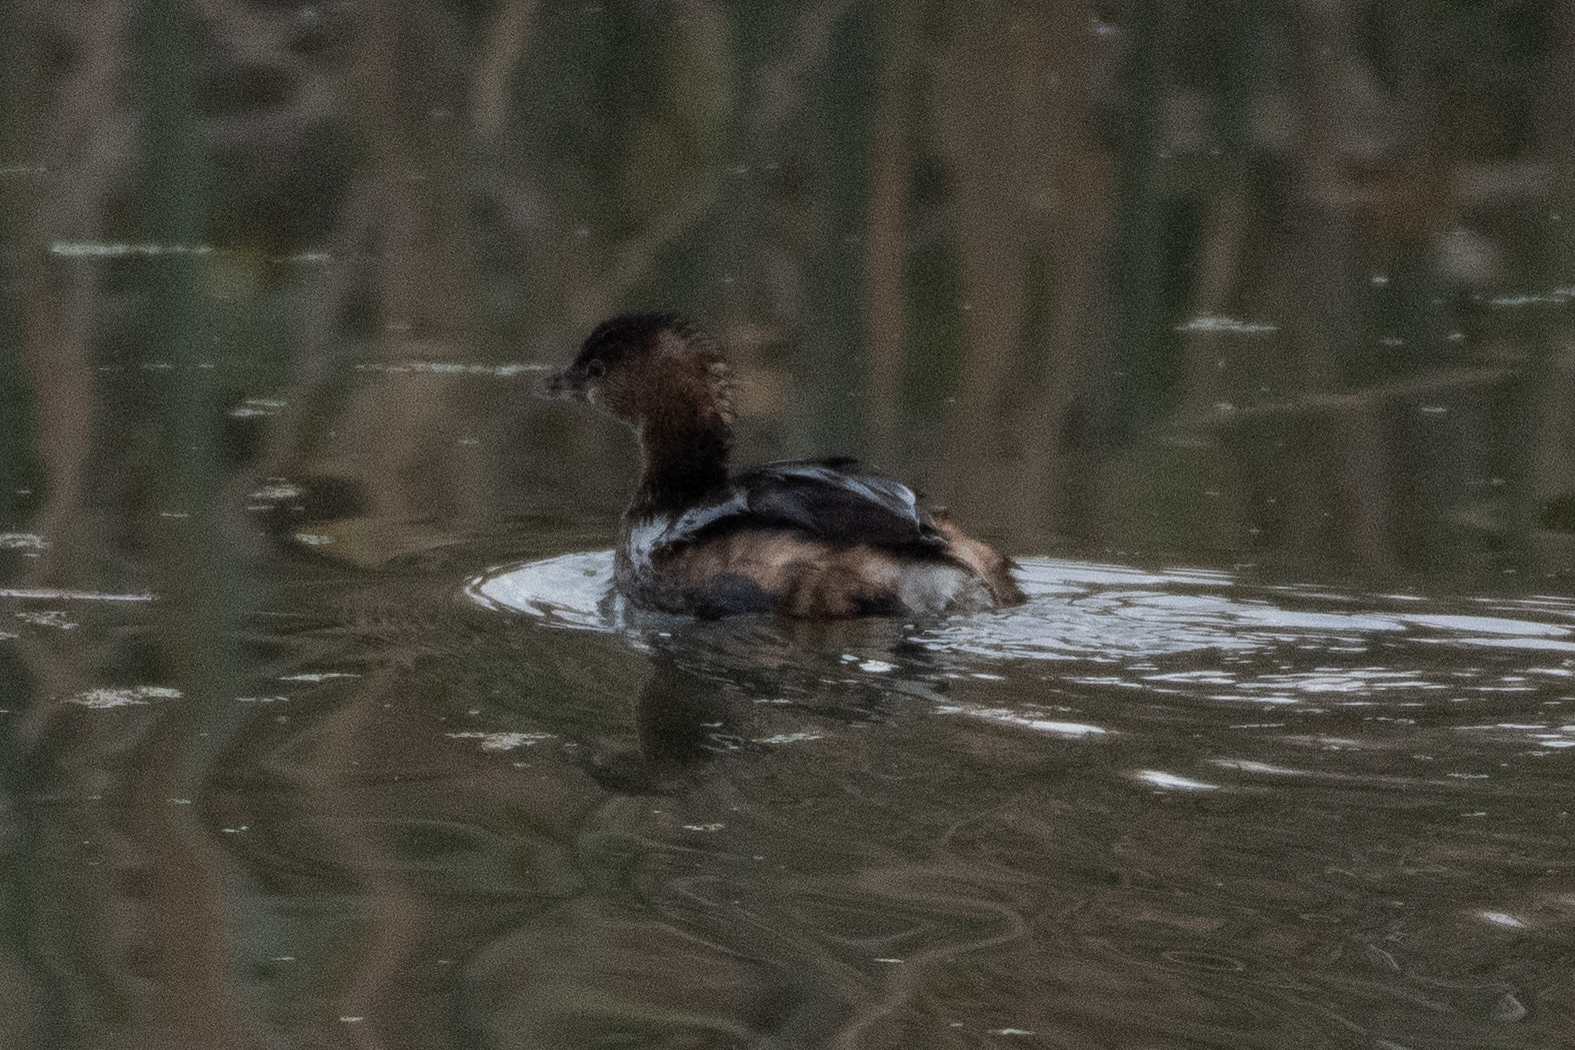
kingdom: Animalia
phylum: Chordata
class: Aves
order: Podicipediformes
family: Podicipedidae
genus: Podilymbus
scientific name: Podilymbus podiceps
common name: Pied-billed grebe
